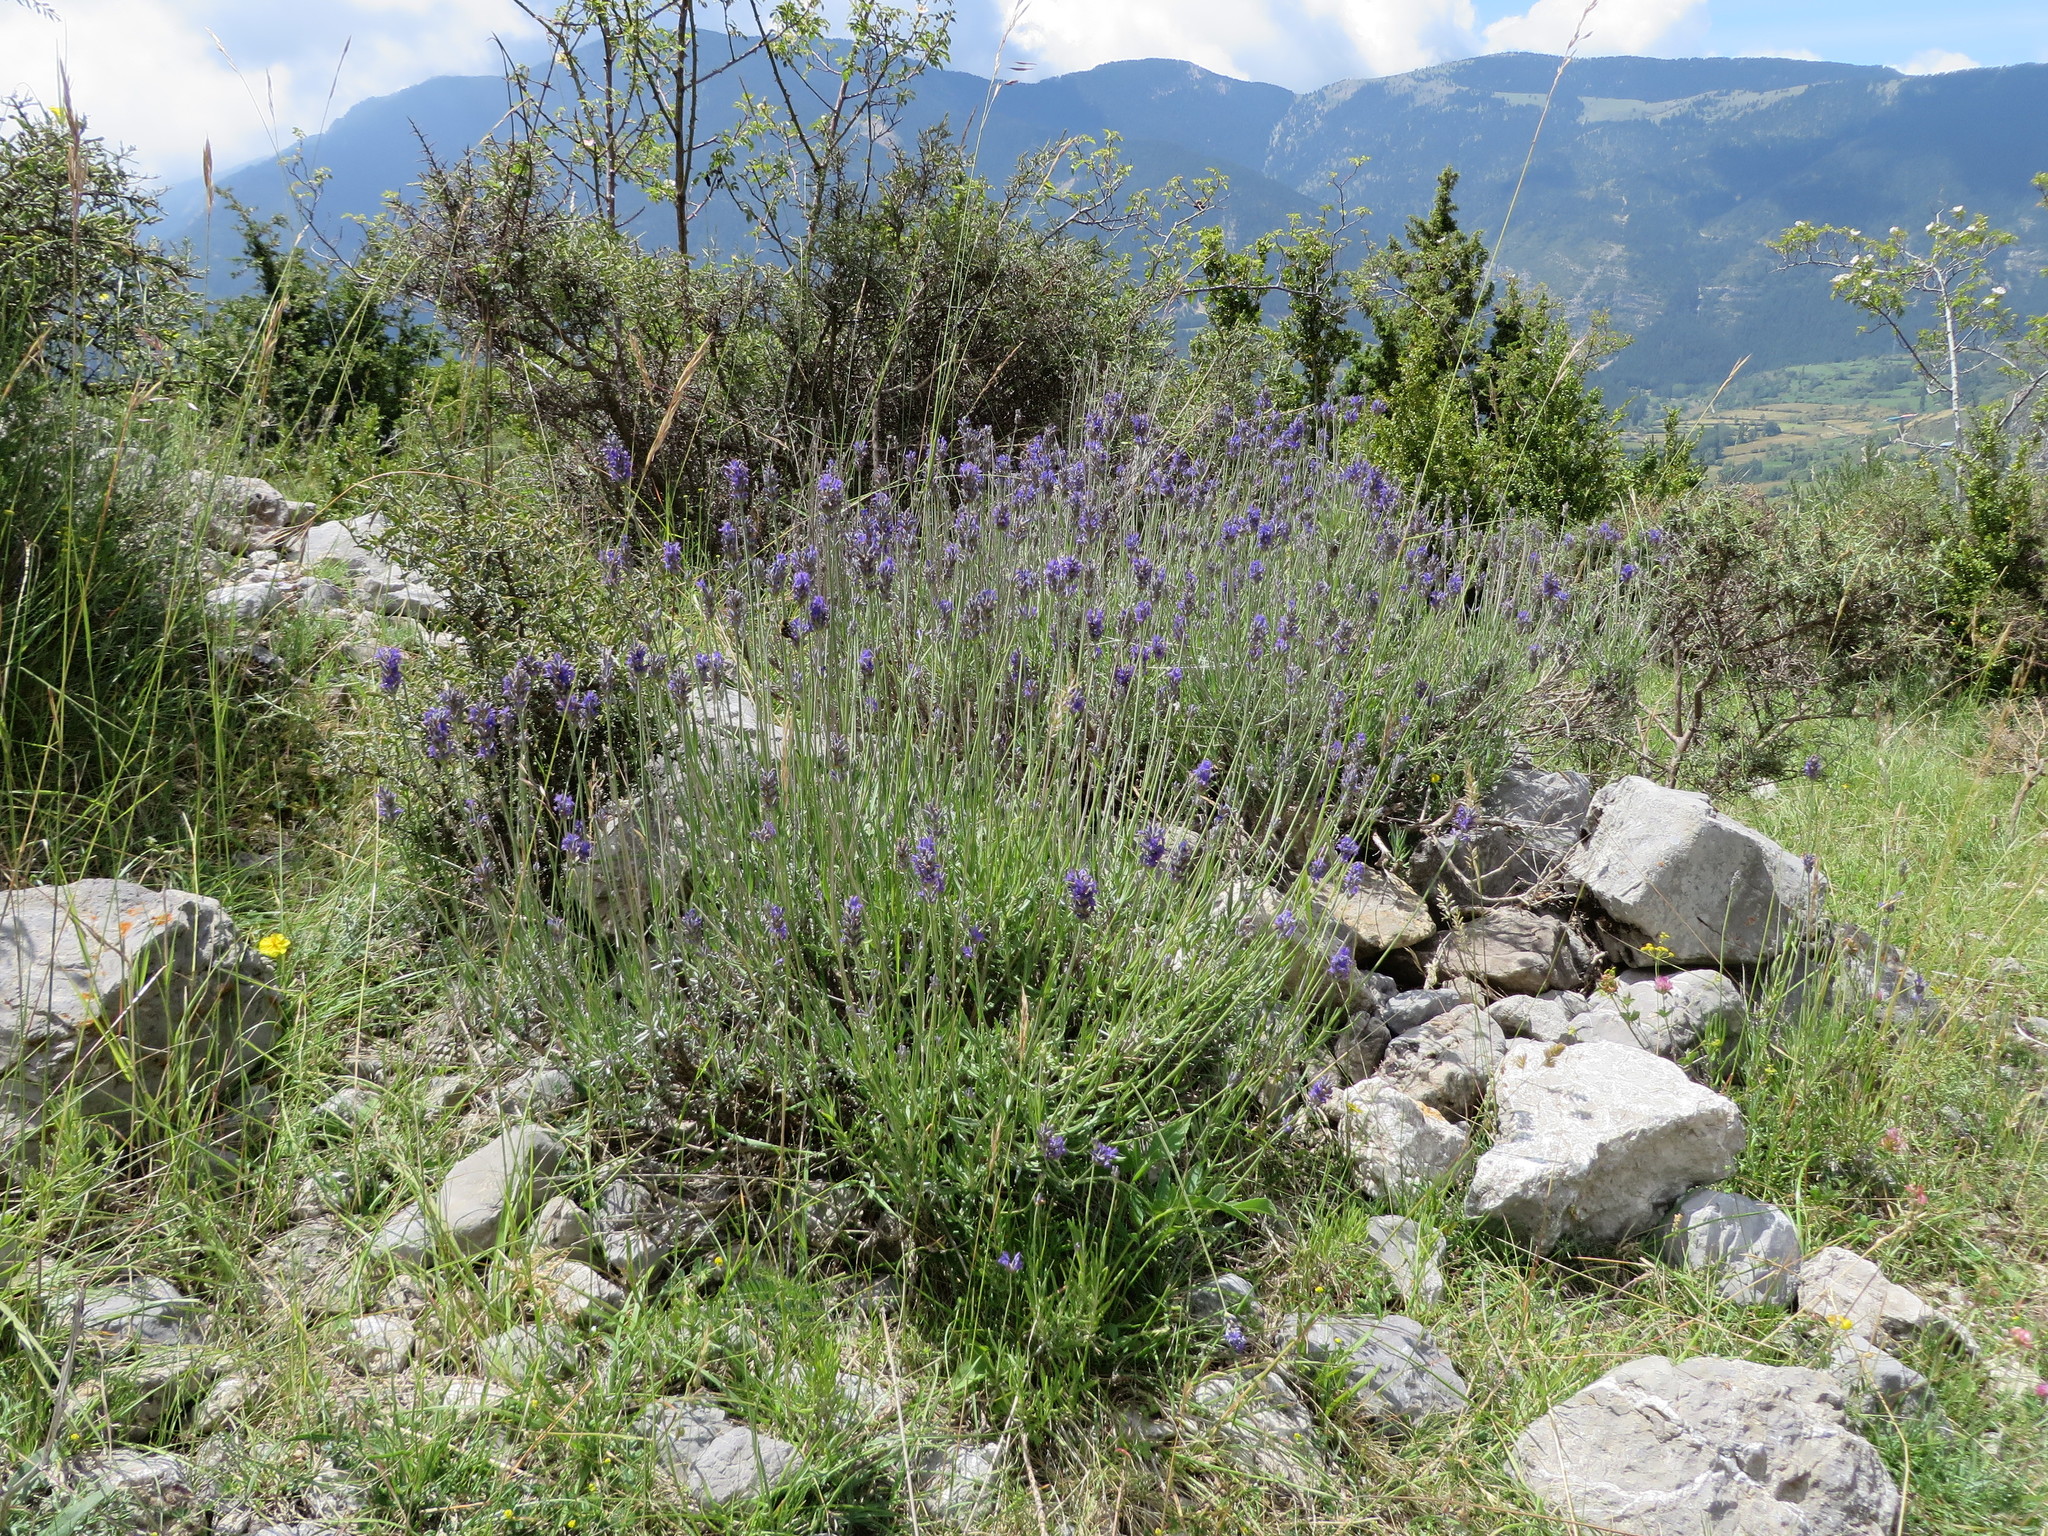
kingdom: Plantae
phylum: Tracheophyta
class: Magnoliopsida
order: Lamiales
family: Lamiaceae
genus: Lavandula
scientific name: Lavandula angustifolia
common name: Garden lavender
